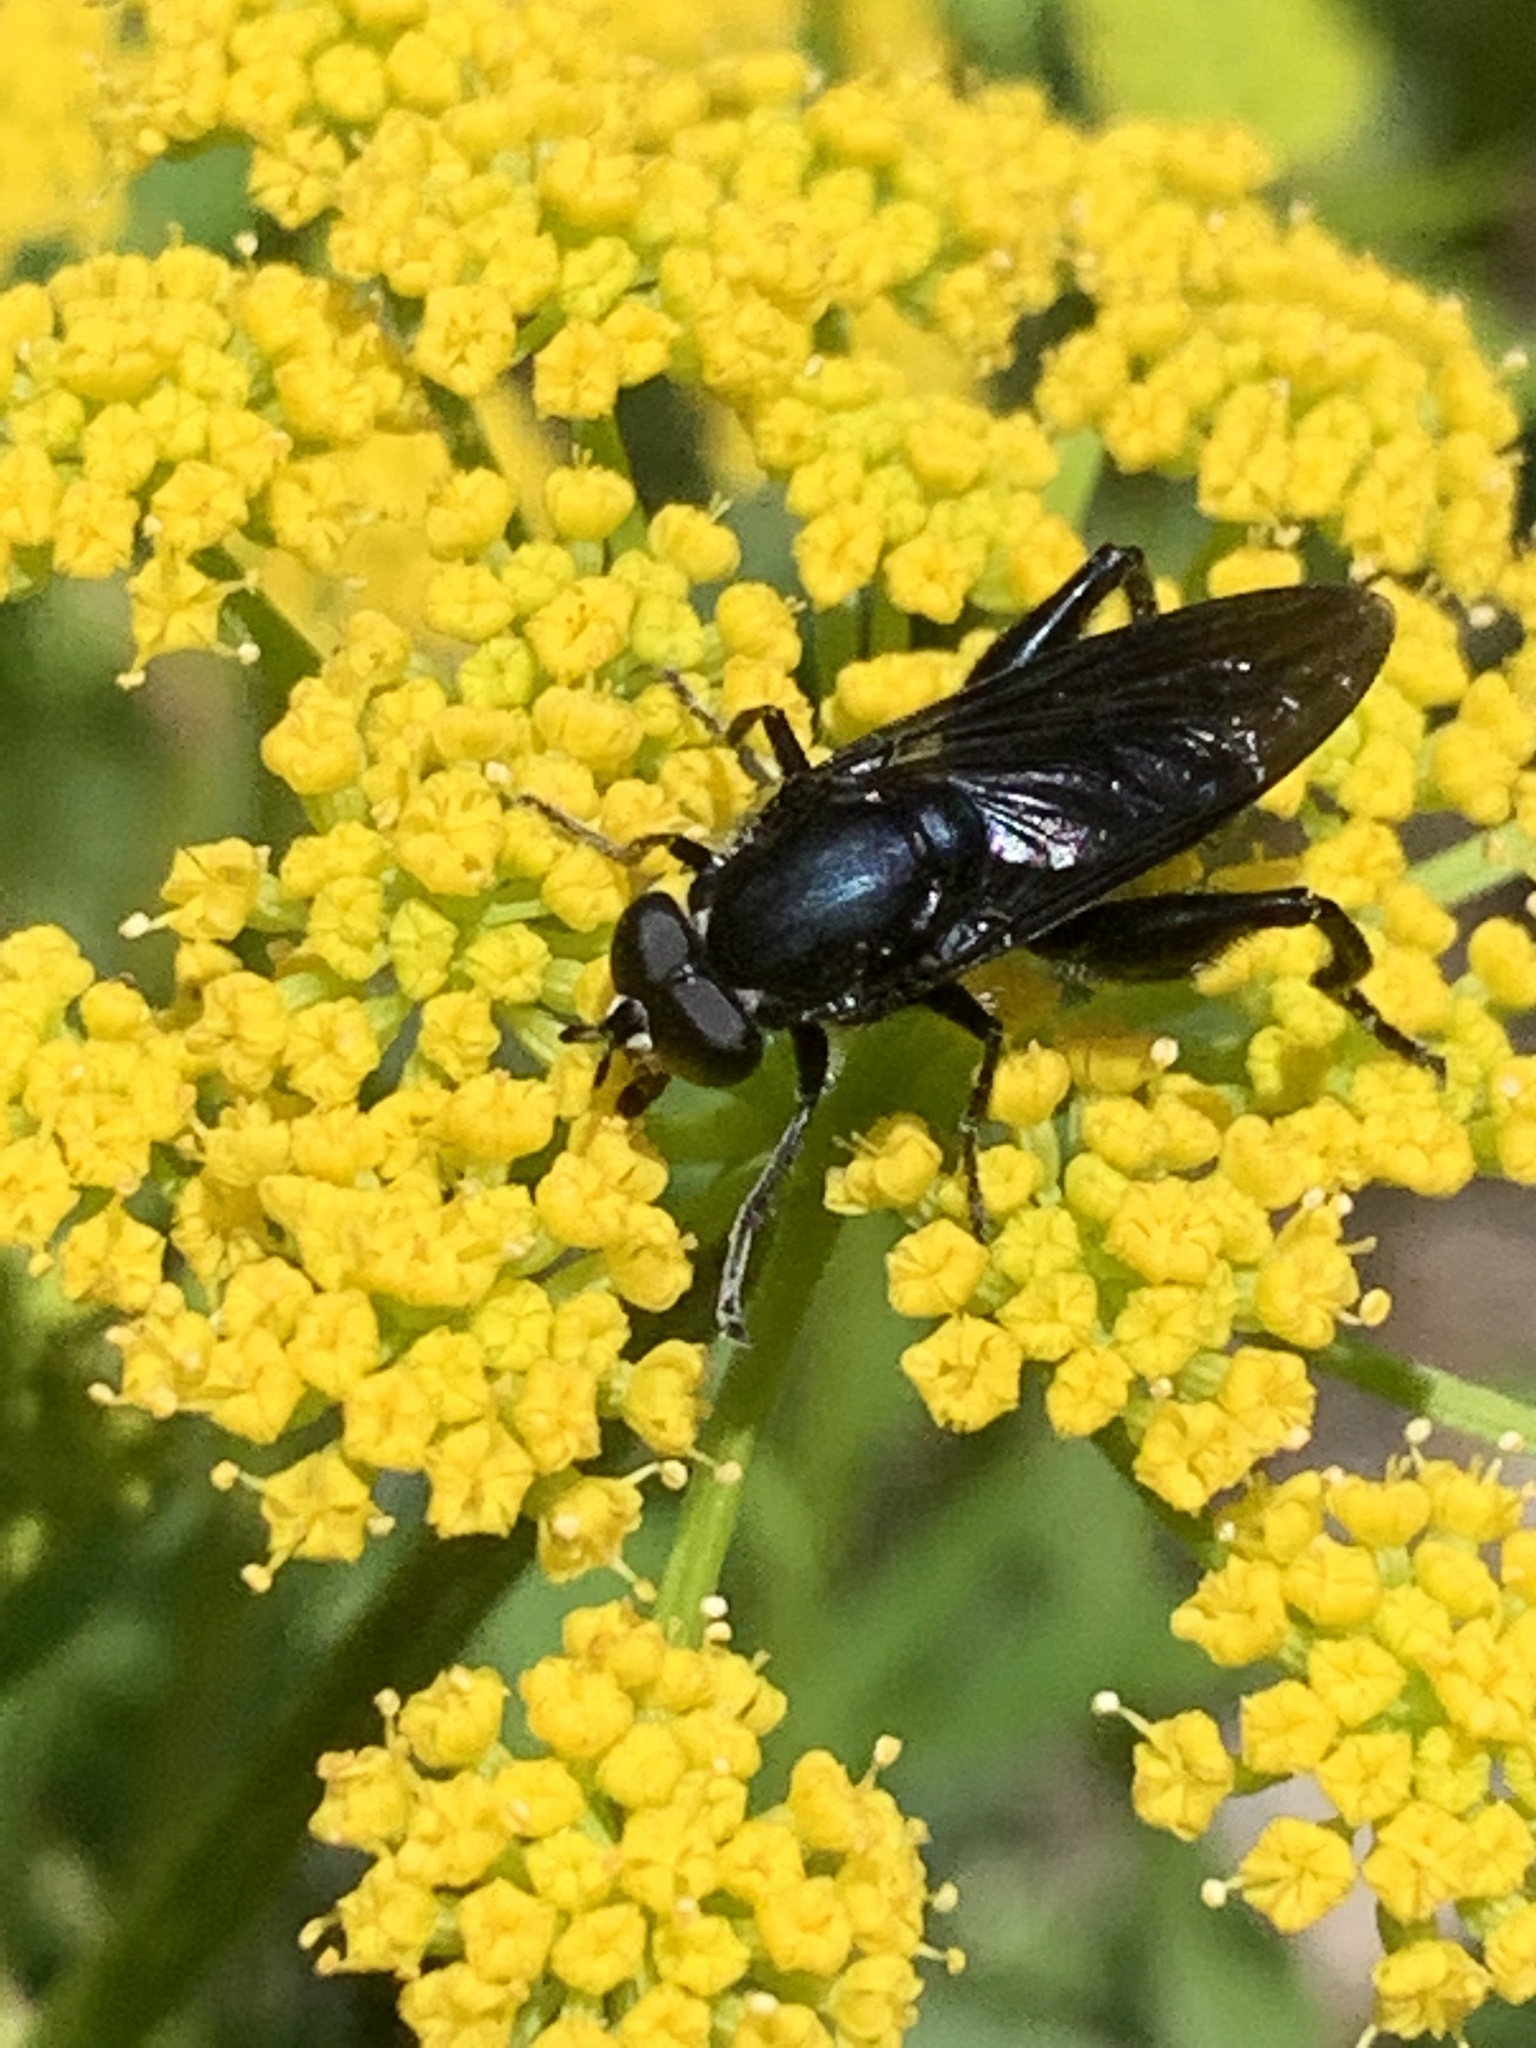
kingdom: Animalia
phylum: Arthropoda
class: Insecta
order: Diptera
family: Syrphidae
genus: Chalcosyrphus
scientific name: Chalcosyrphus chalybeus
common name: Violet leafwalker
